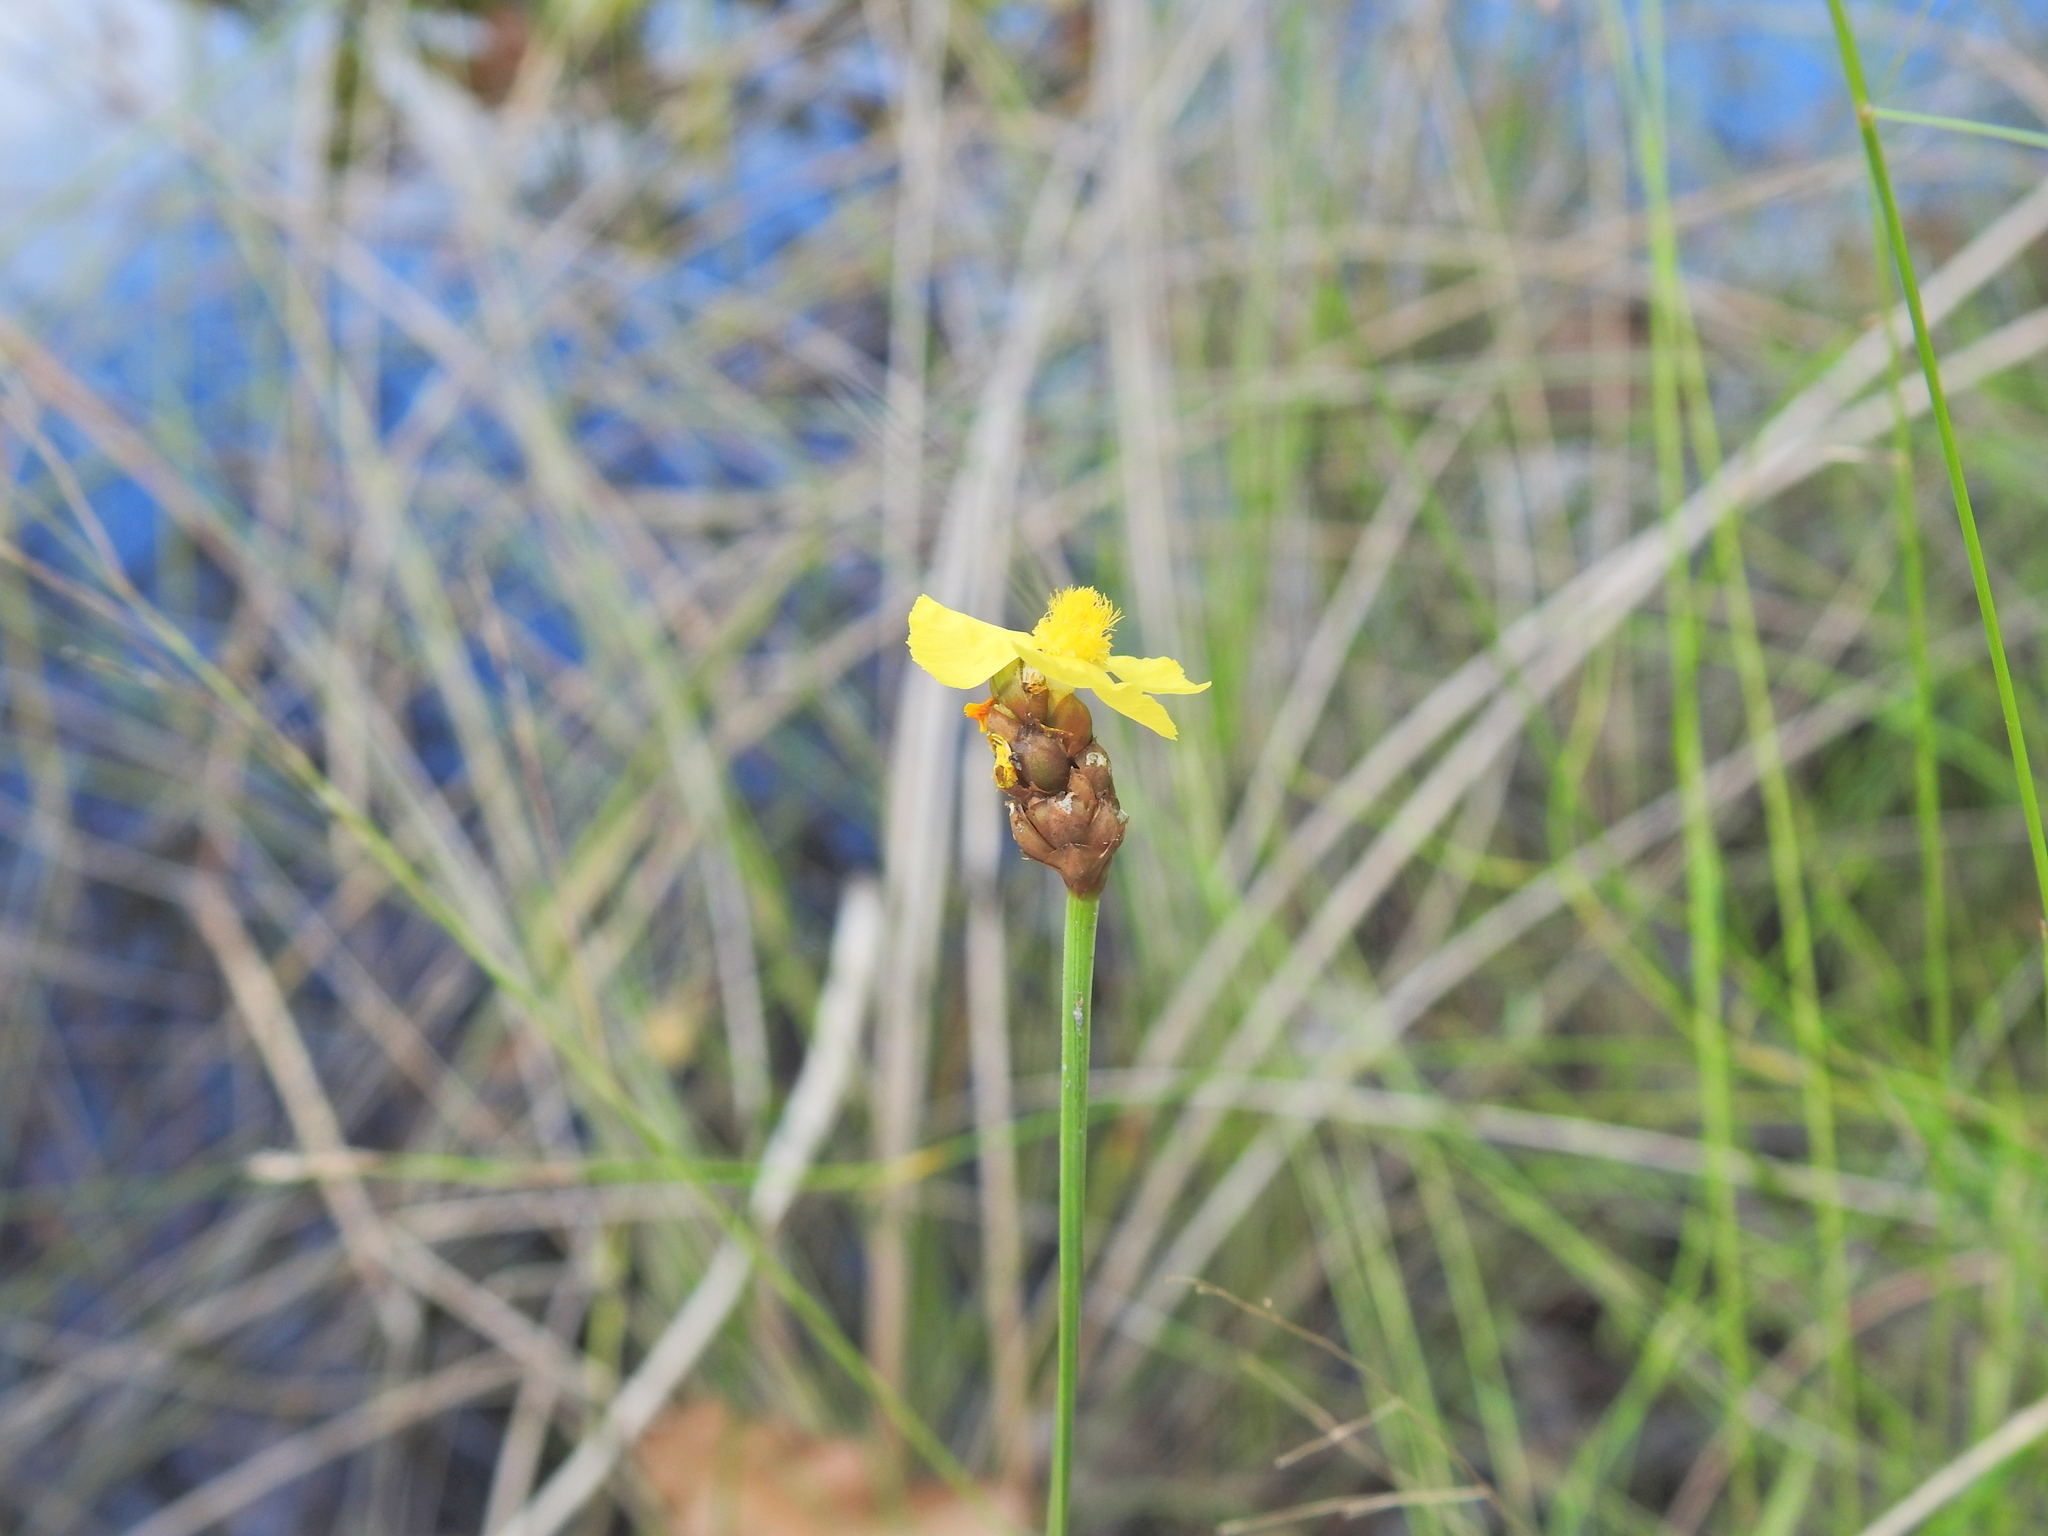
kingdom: Plantae
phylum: Tracheophyta
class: Liliopsida
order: Poales
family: Xyridaceae
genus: Xyris
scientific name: Xyris complanata
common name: Hawai'i yelloweyed grass
